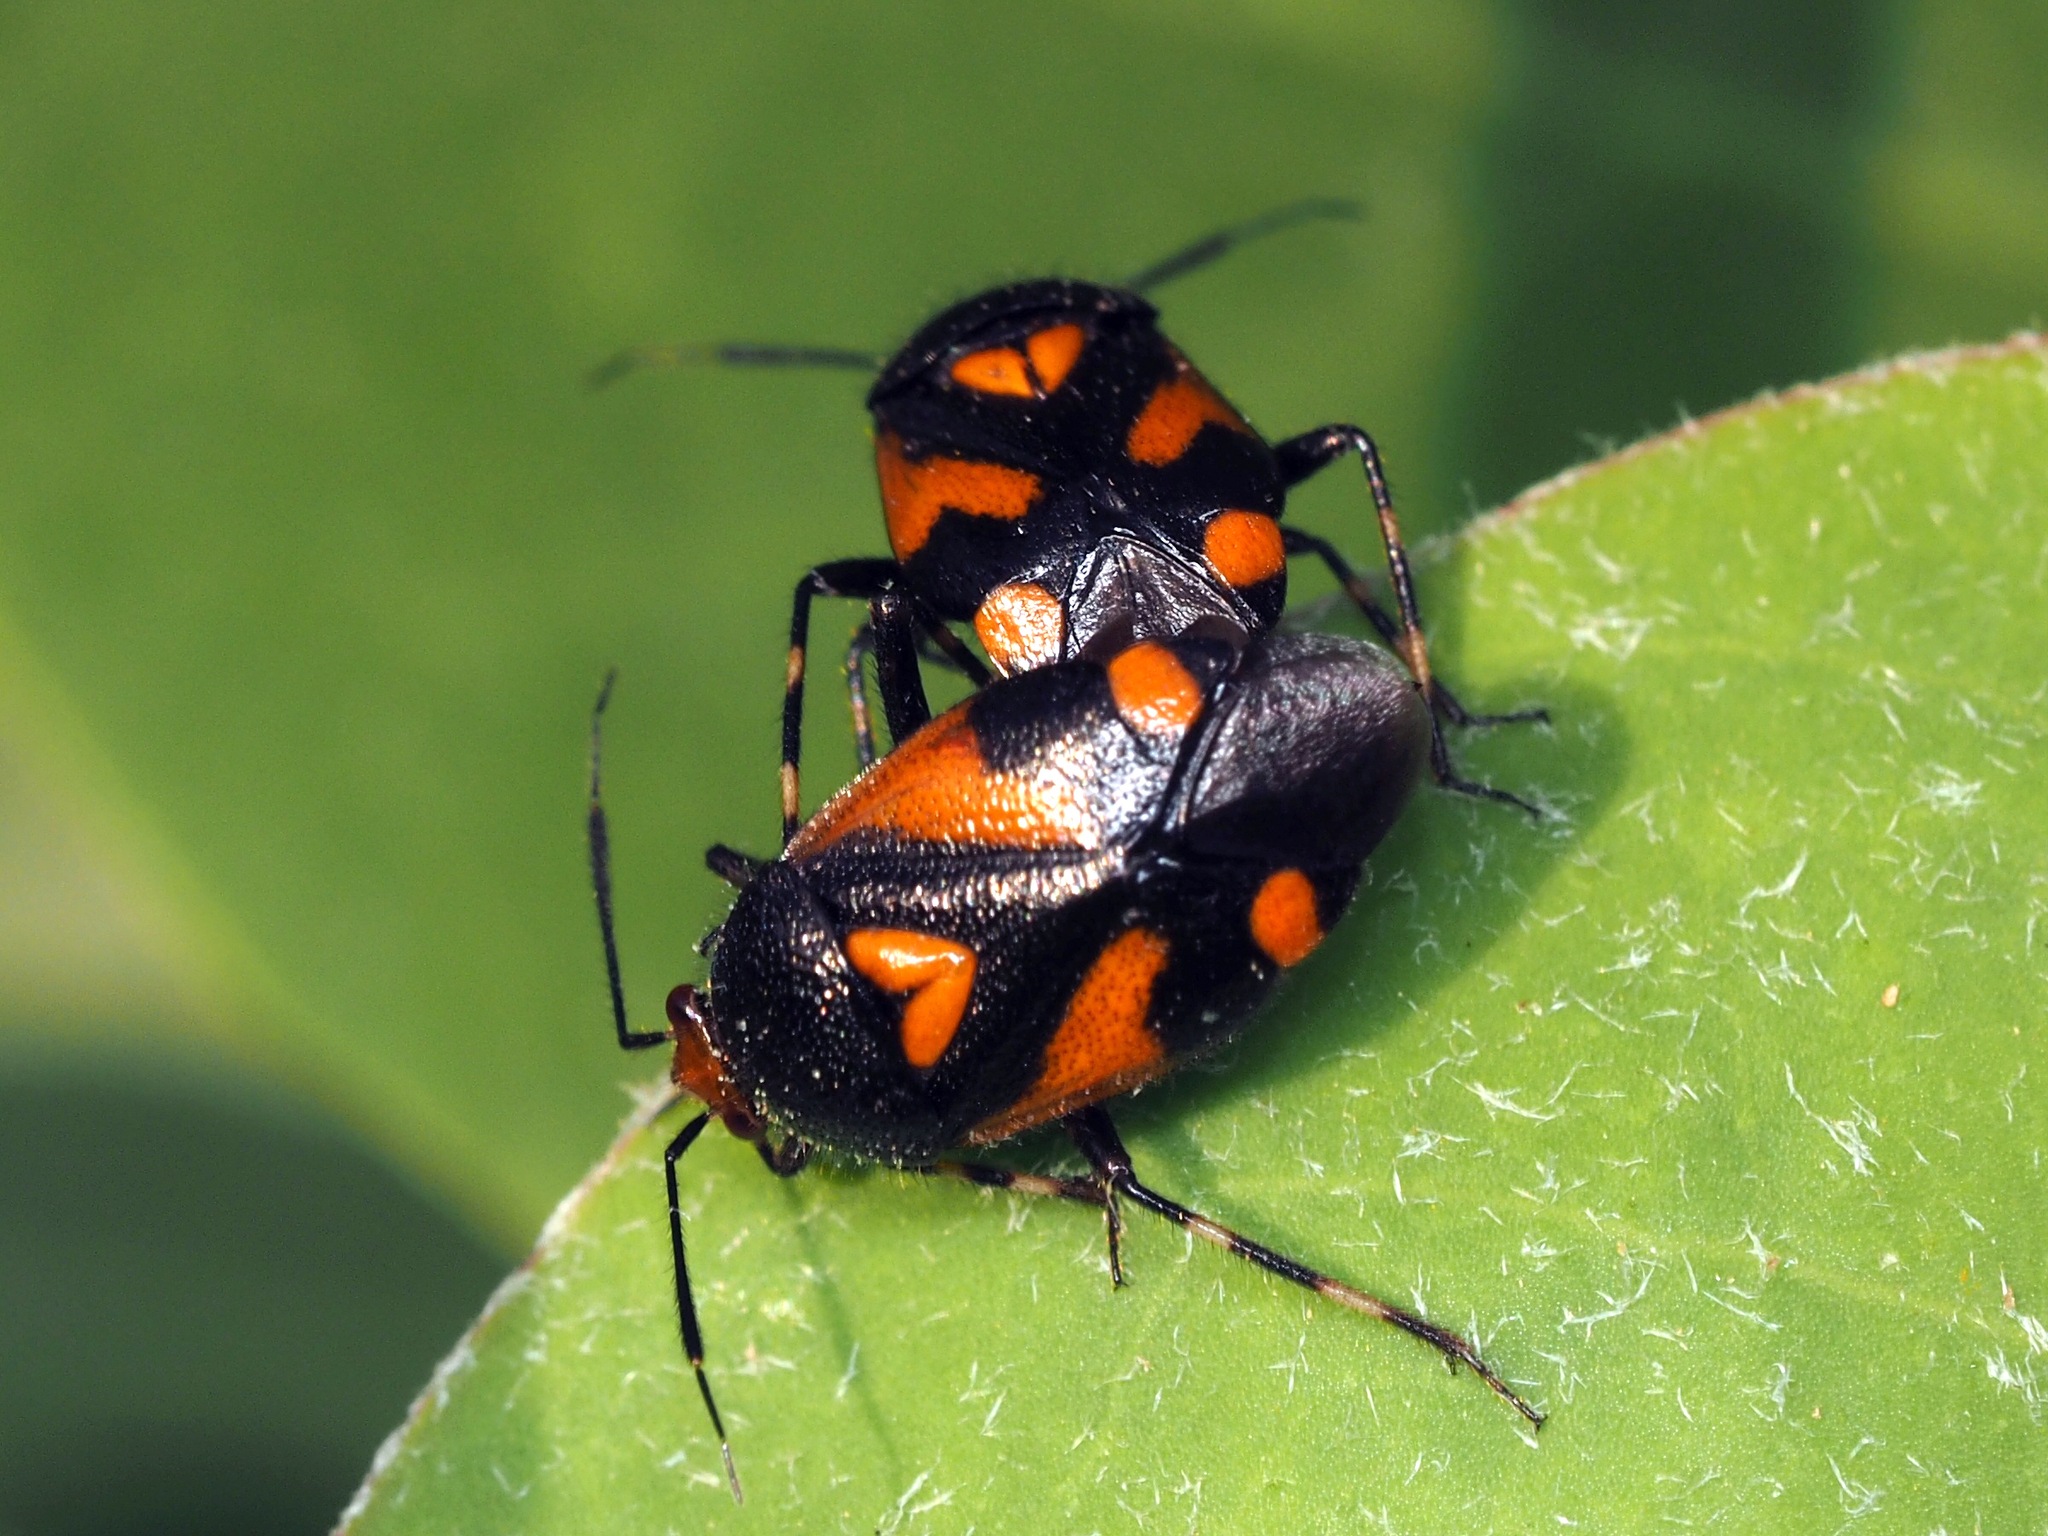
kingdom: Animalia
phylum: Arthropoda
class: Insecta
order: Hemiptera
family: Miridae
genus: Deraeocoris
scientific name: Deraeocoris schach
